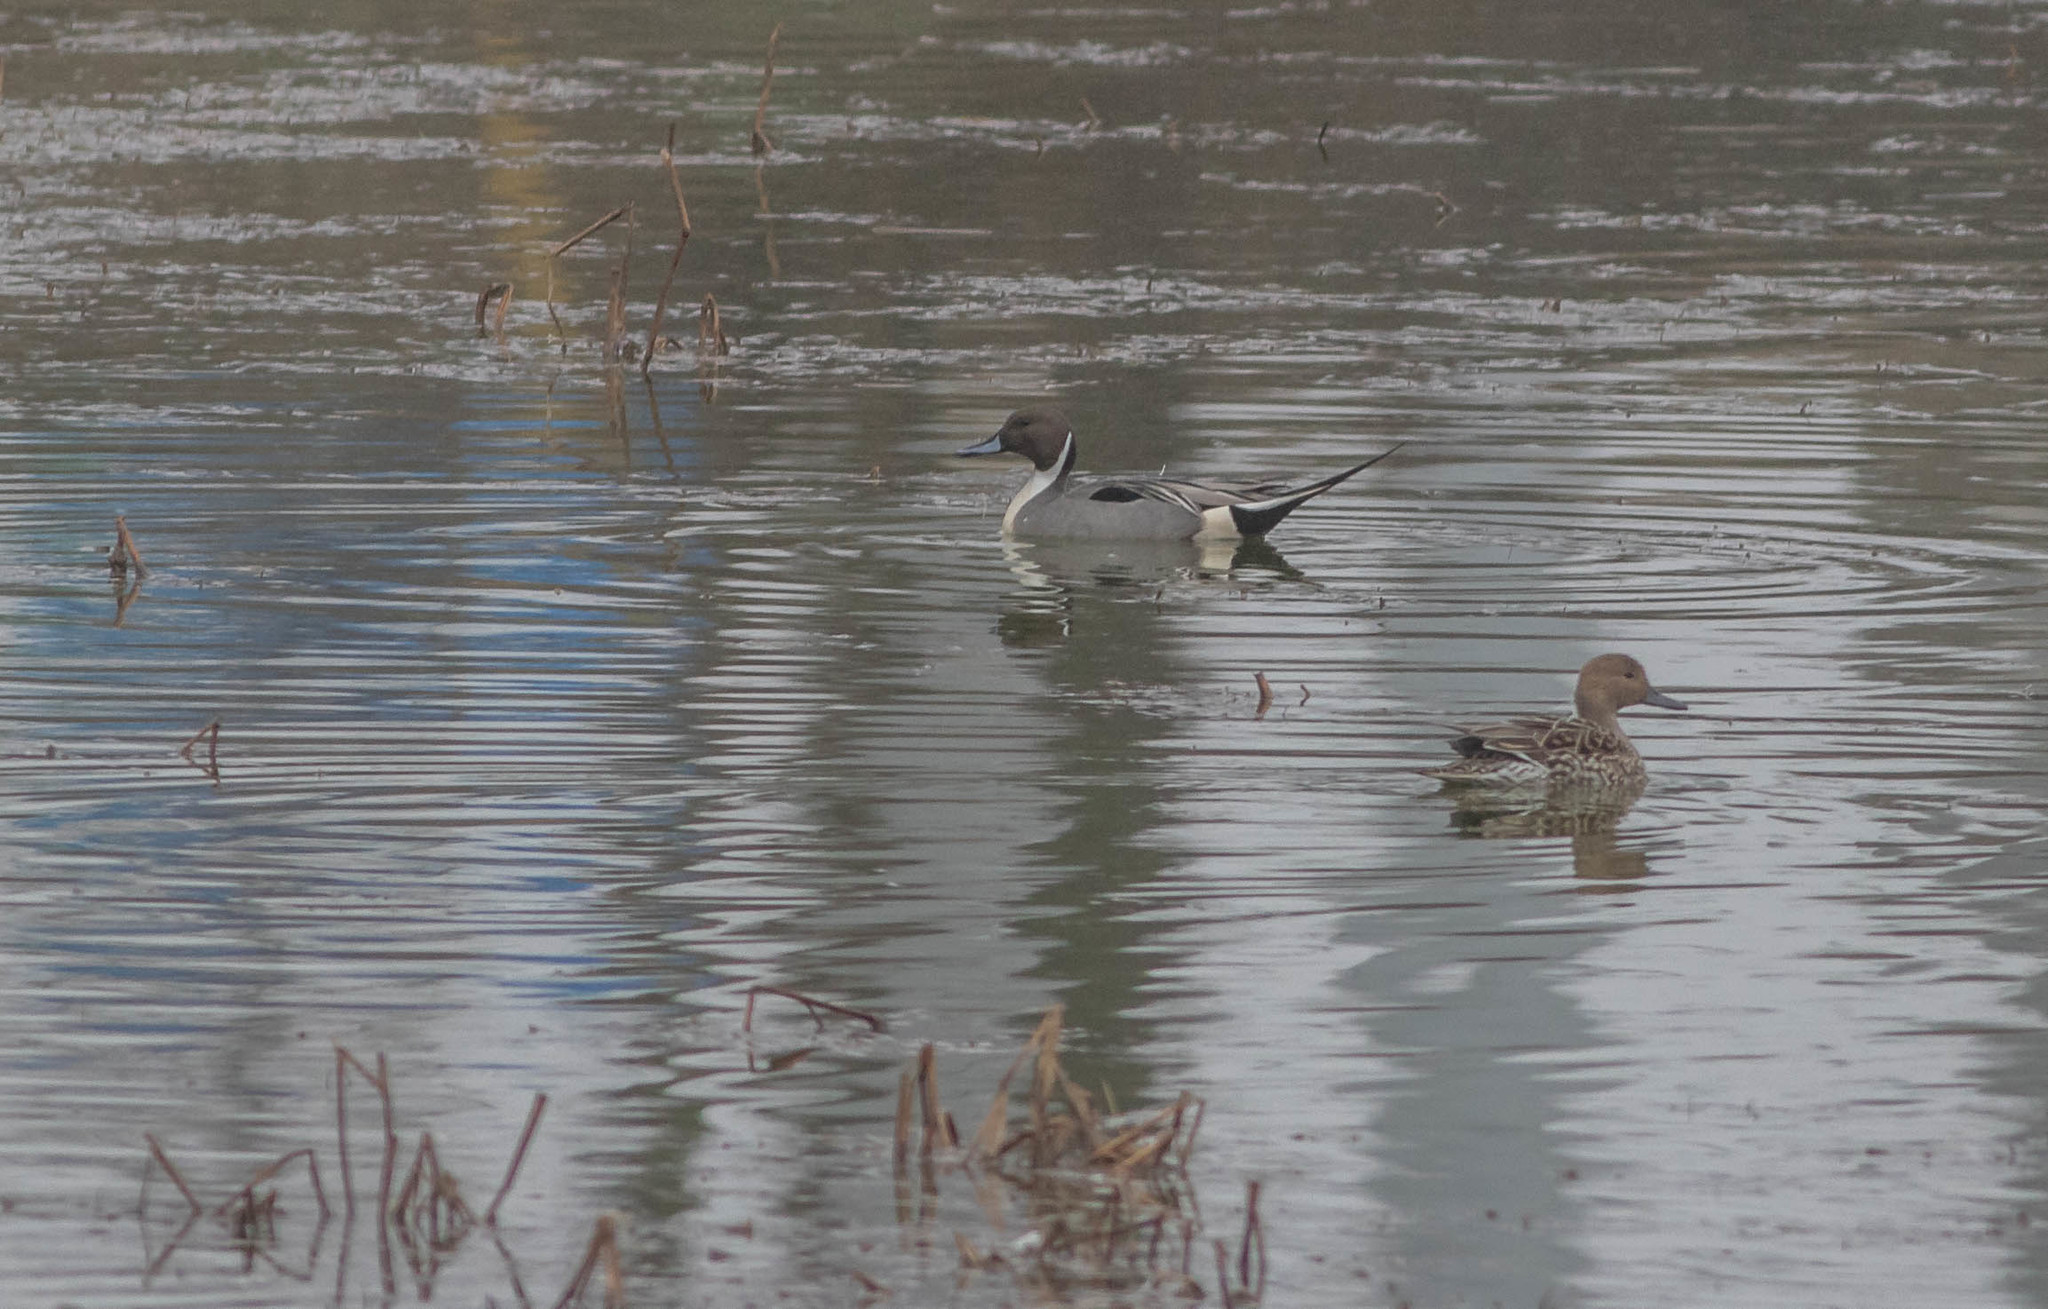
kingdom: Animalia
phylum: Chordata
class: Aves
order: Anseriformes
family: Anatidae
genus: Anas
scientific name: Anas acuta
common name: Northern pintail
